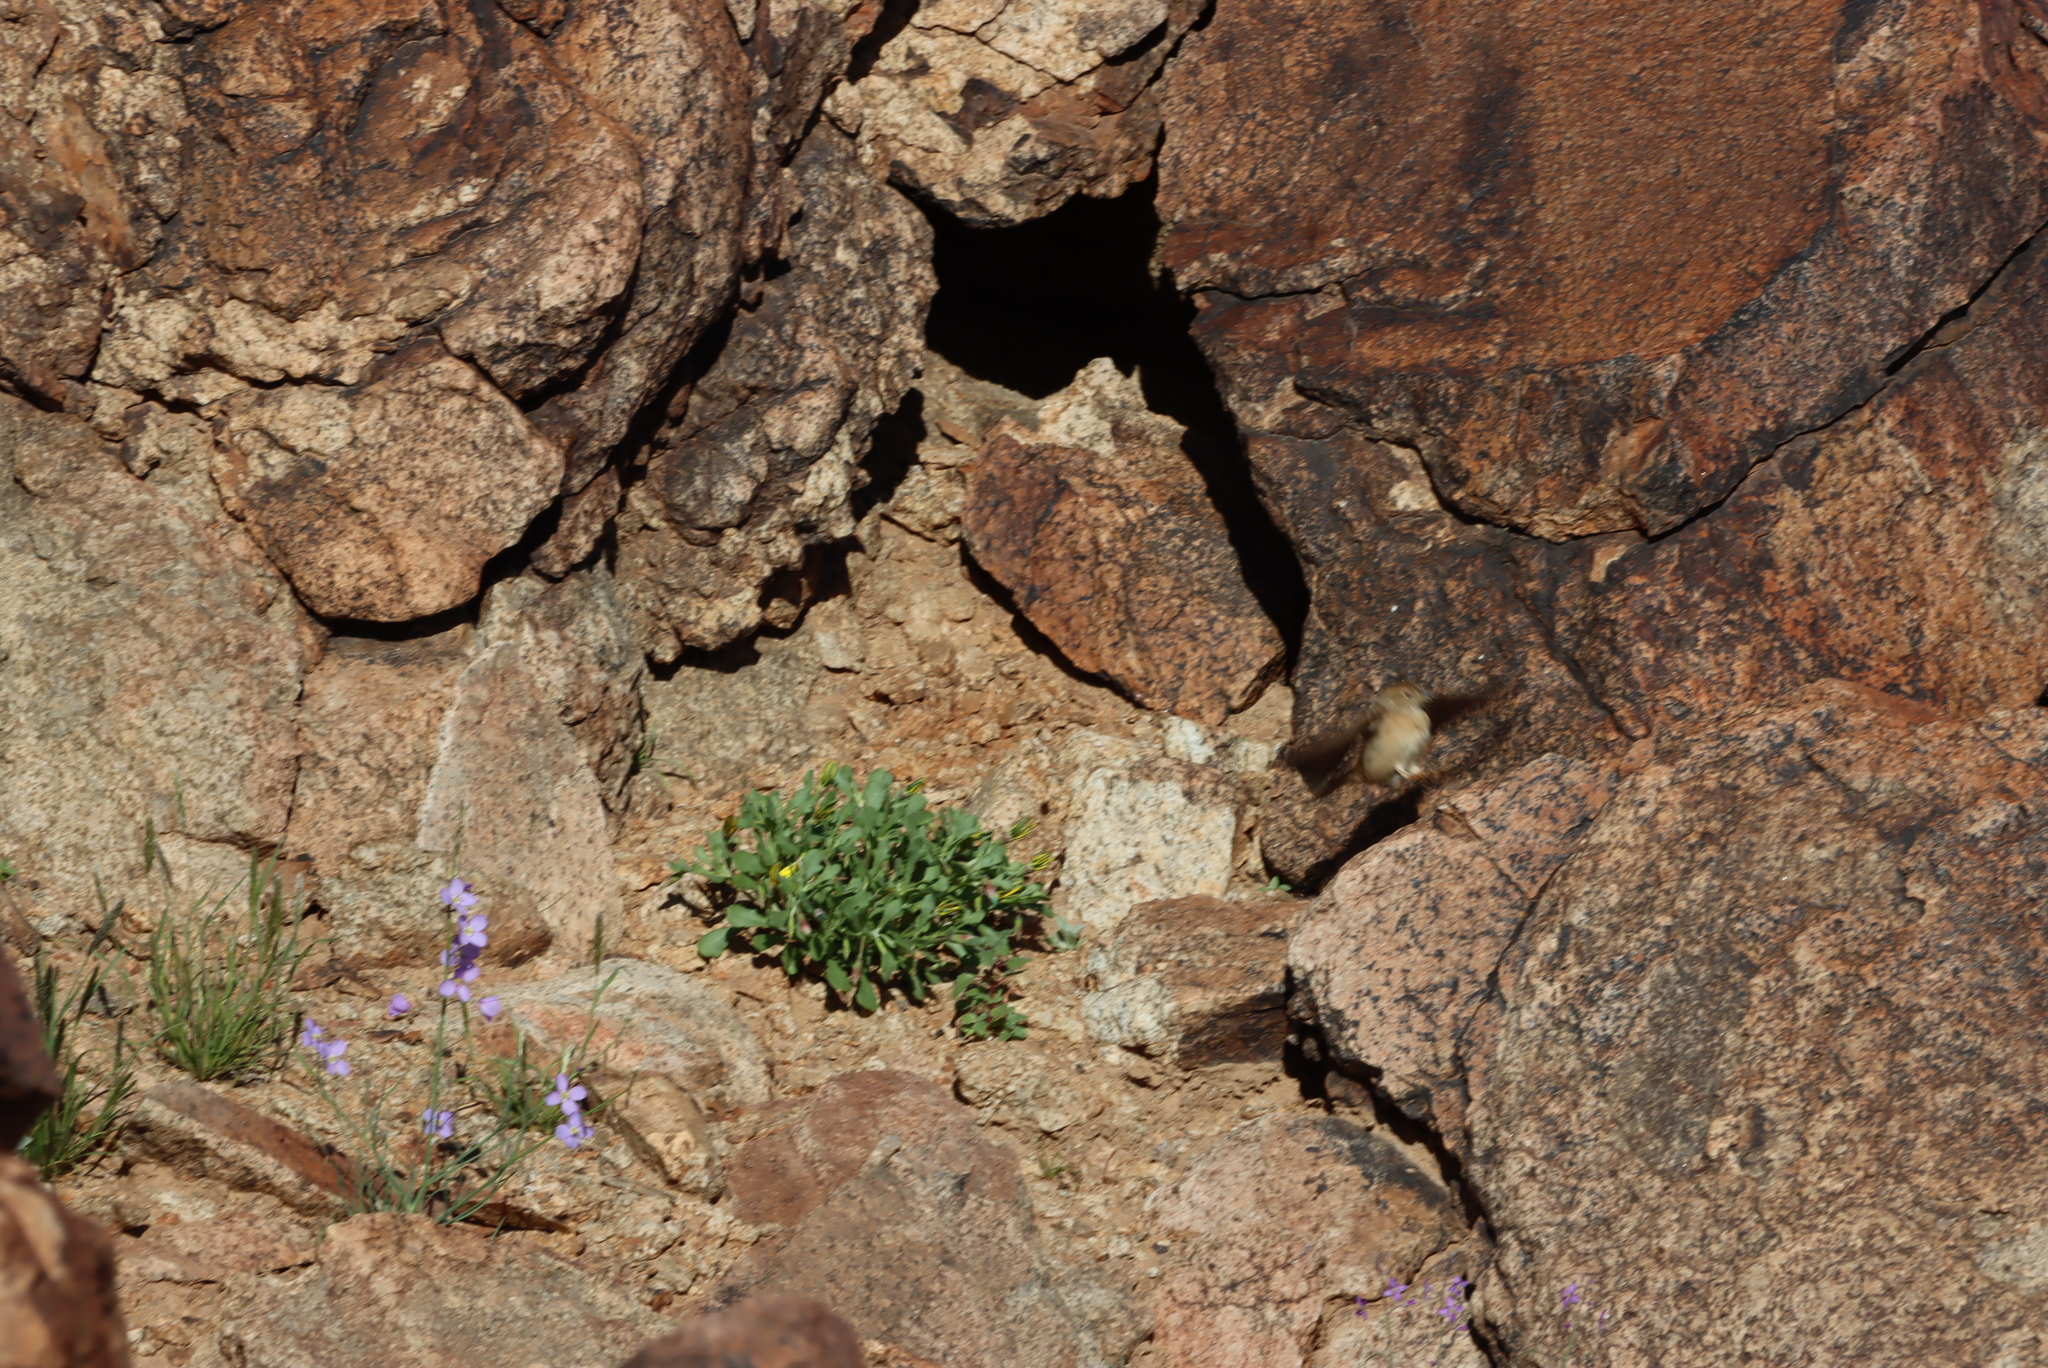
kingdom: Animalia
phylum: Chordata
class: Aves
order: Passeriformes
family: Emberizidae
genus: Emberiza
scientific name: Emberiza impetuani
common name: Lark-like bunting
